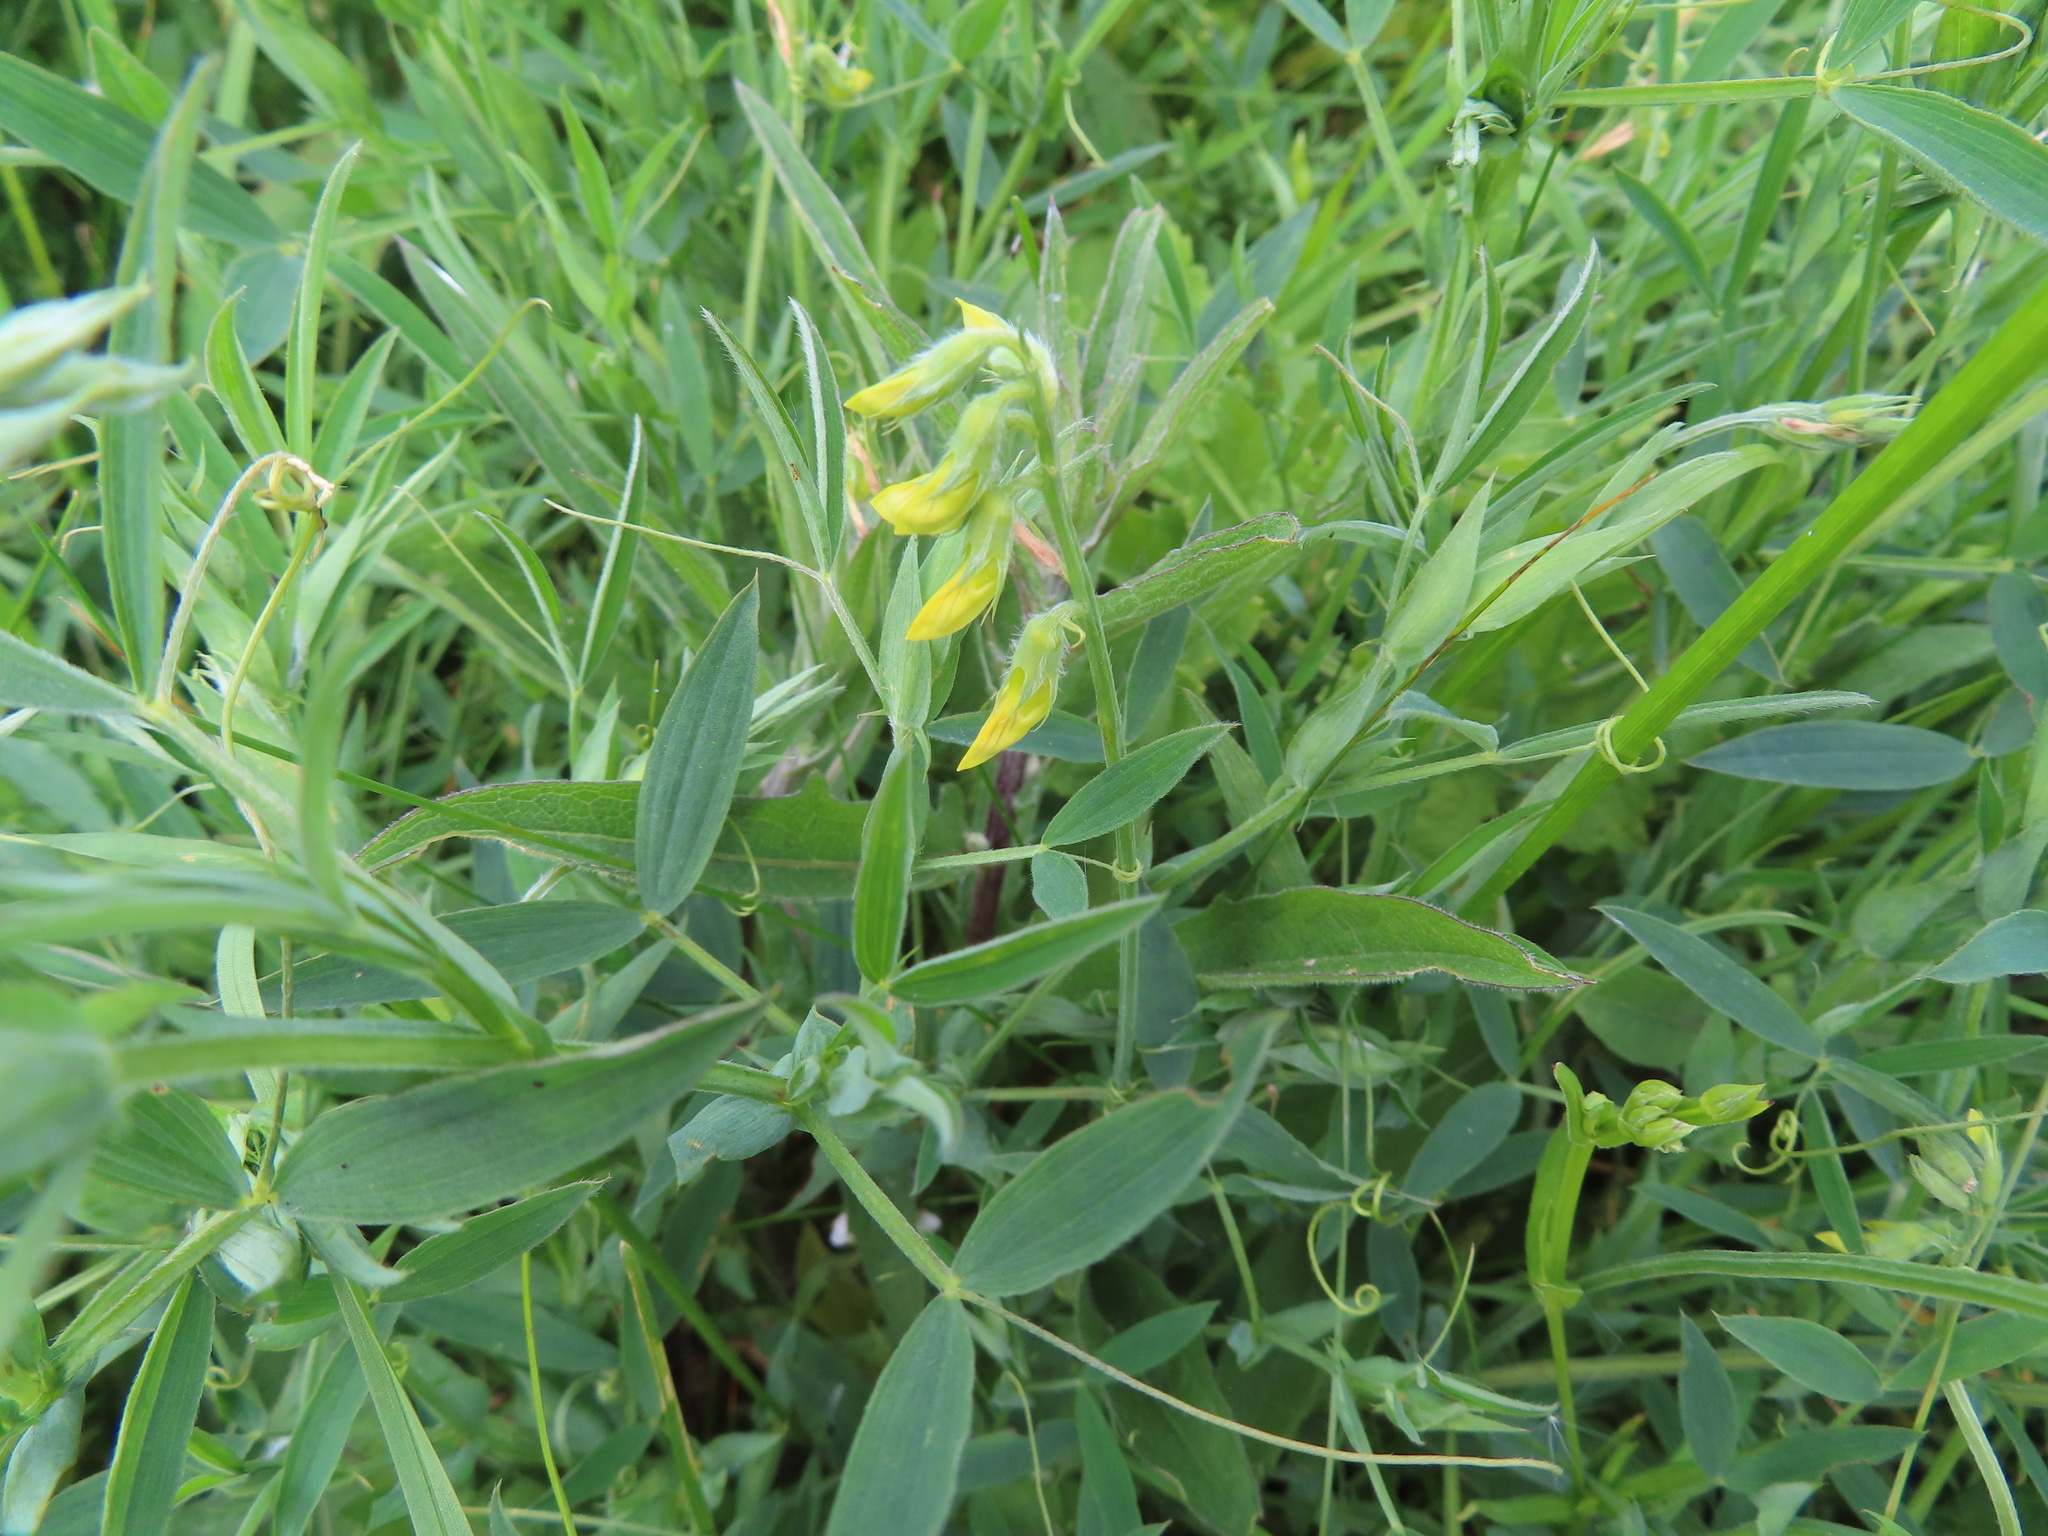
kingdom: Plantae
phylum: Tracheophyta
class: Magnoliopsida
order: Fabales
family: Fabaceae
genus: Lathyrus
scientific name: Lathyrus pratensis
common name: Meadow vetchling
